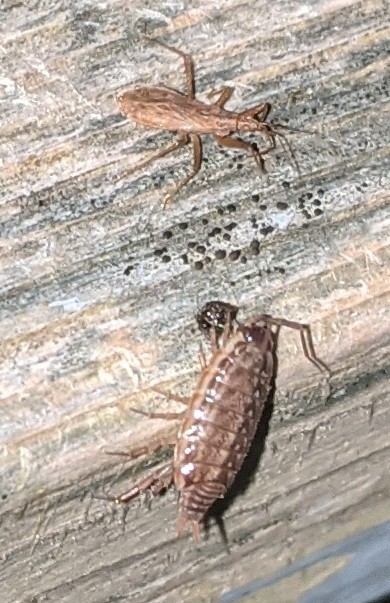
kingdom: Animalia
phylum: Arthropoda
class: Malacostraca
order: Isopoda
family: Philosciidae
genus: Philoscia
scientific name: Philoscia muscorum
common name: Common striped woodlouse
